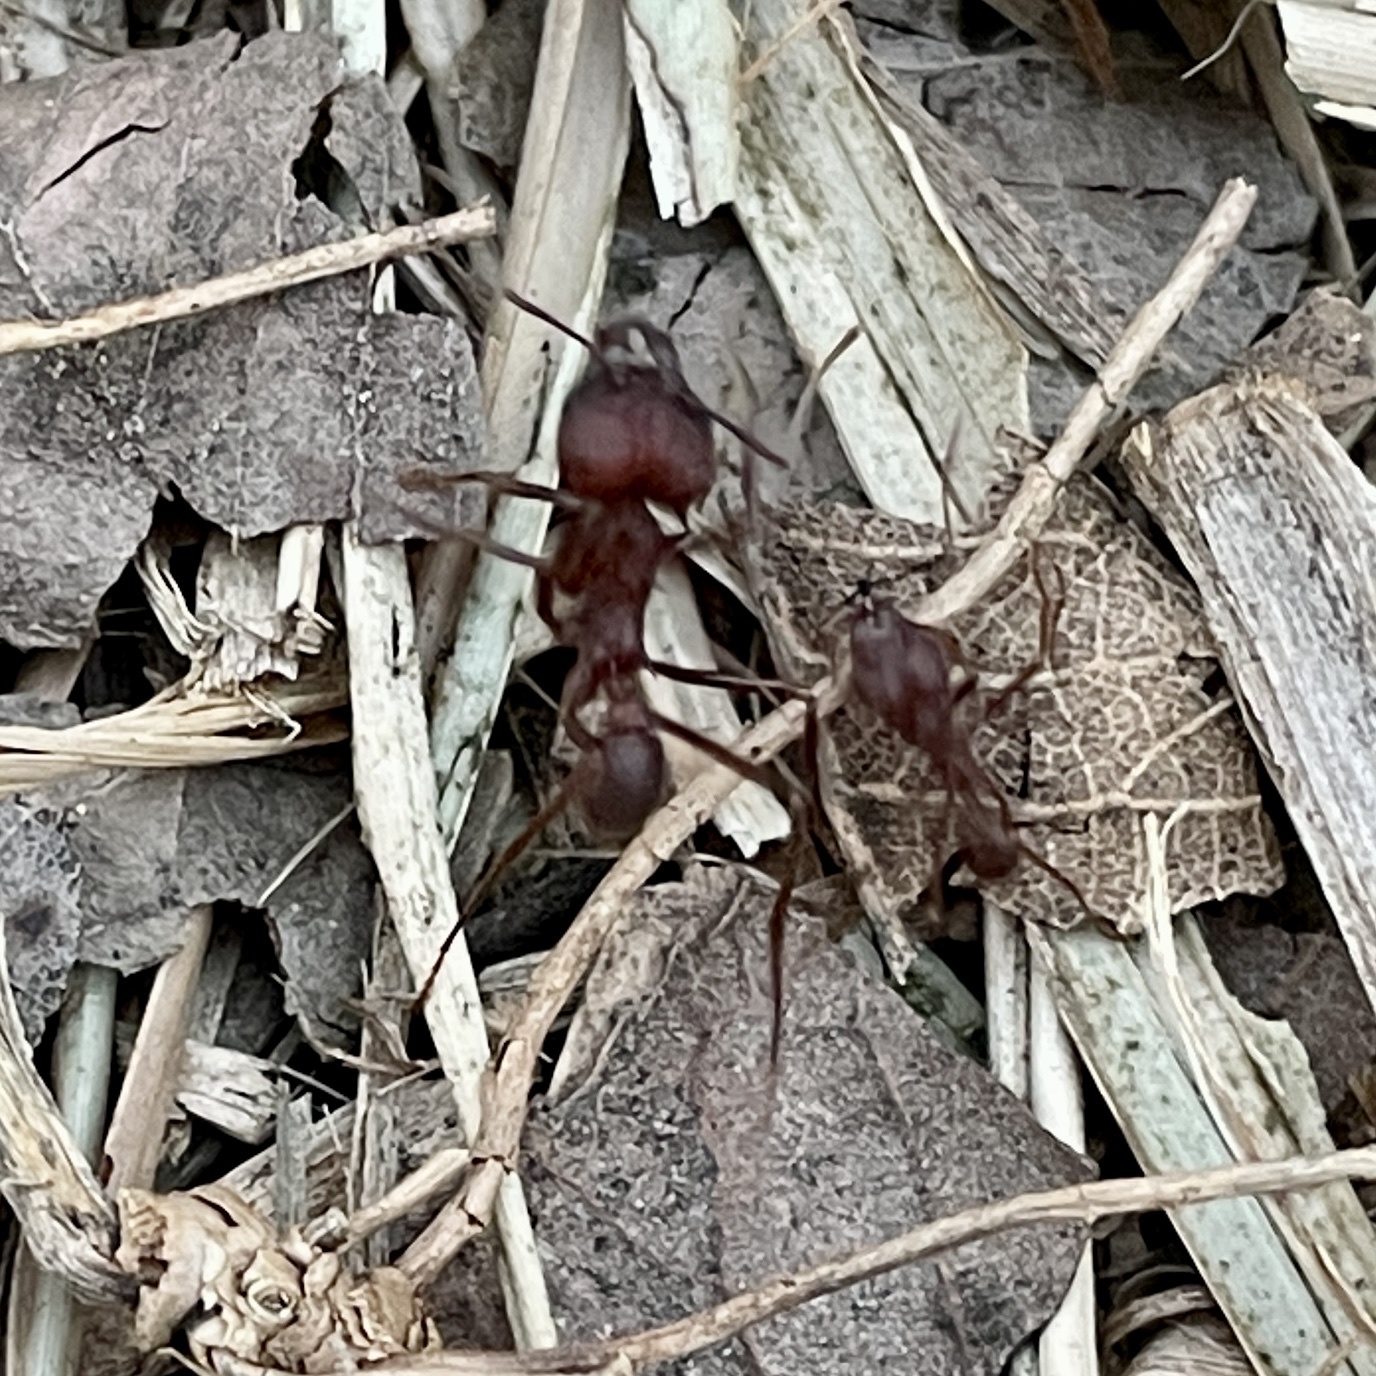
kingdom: Animalia
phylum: Arthropoda
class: Insecta
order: Hymenoptera
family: Formicidae
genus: Atta
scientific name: Atta texana
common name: Texas leafcutting ant
